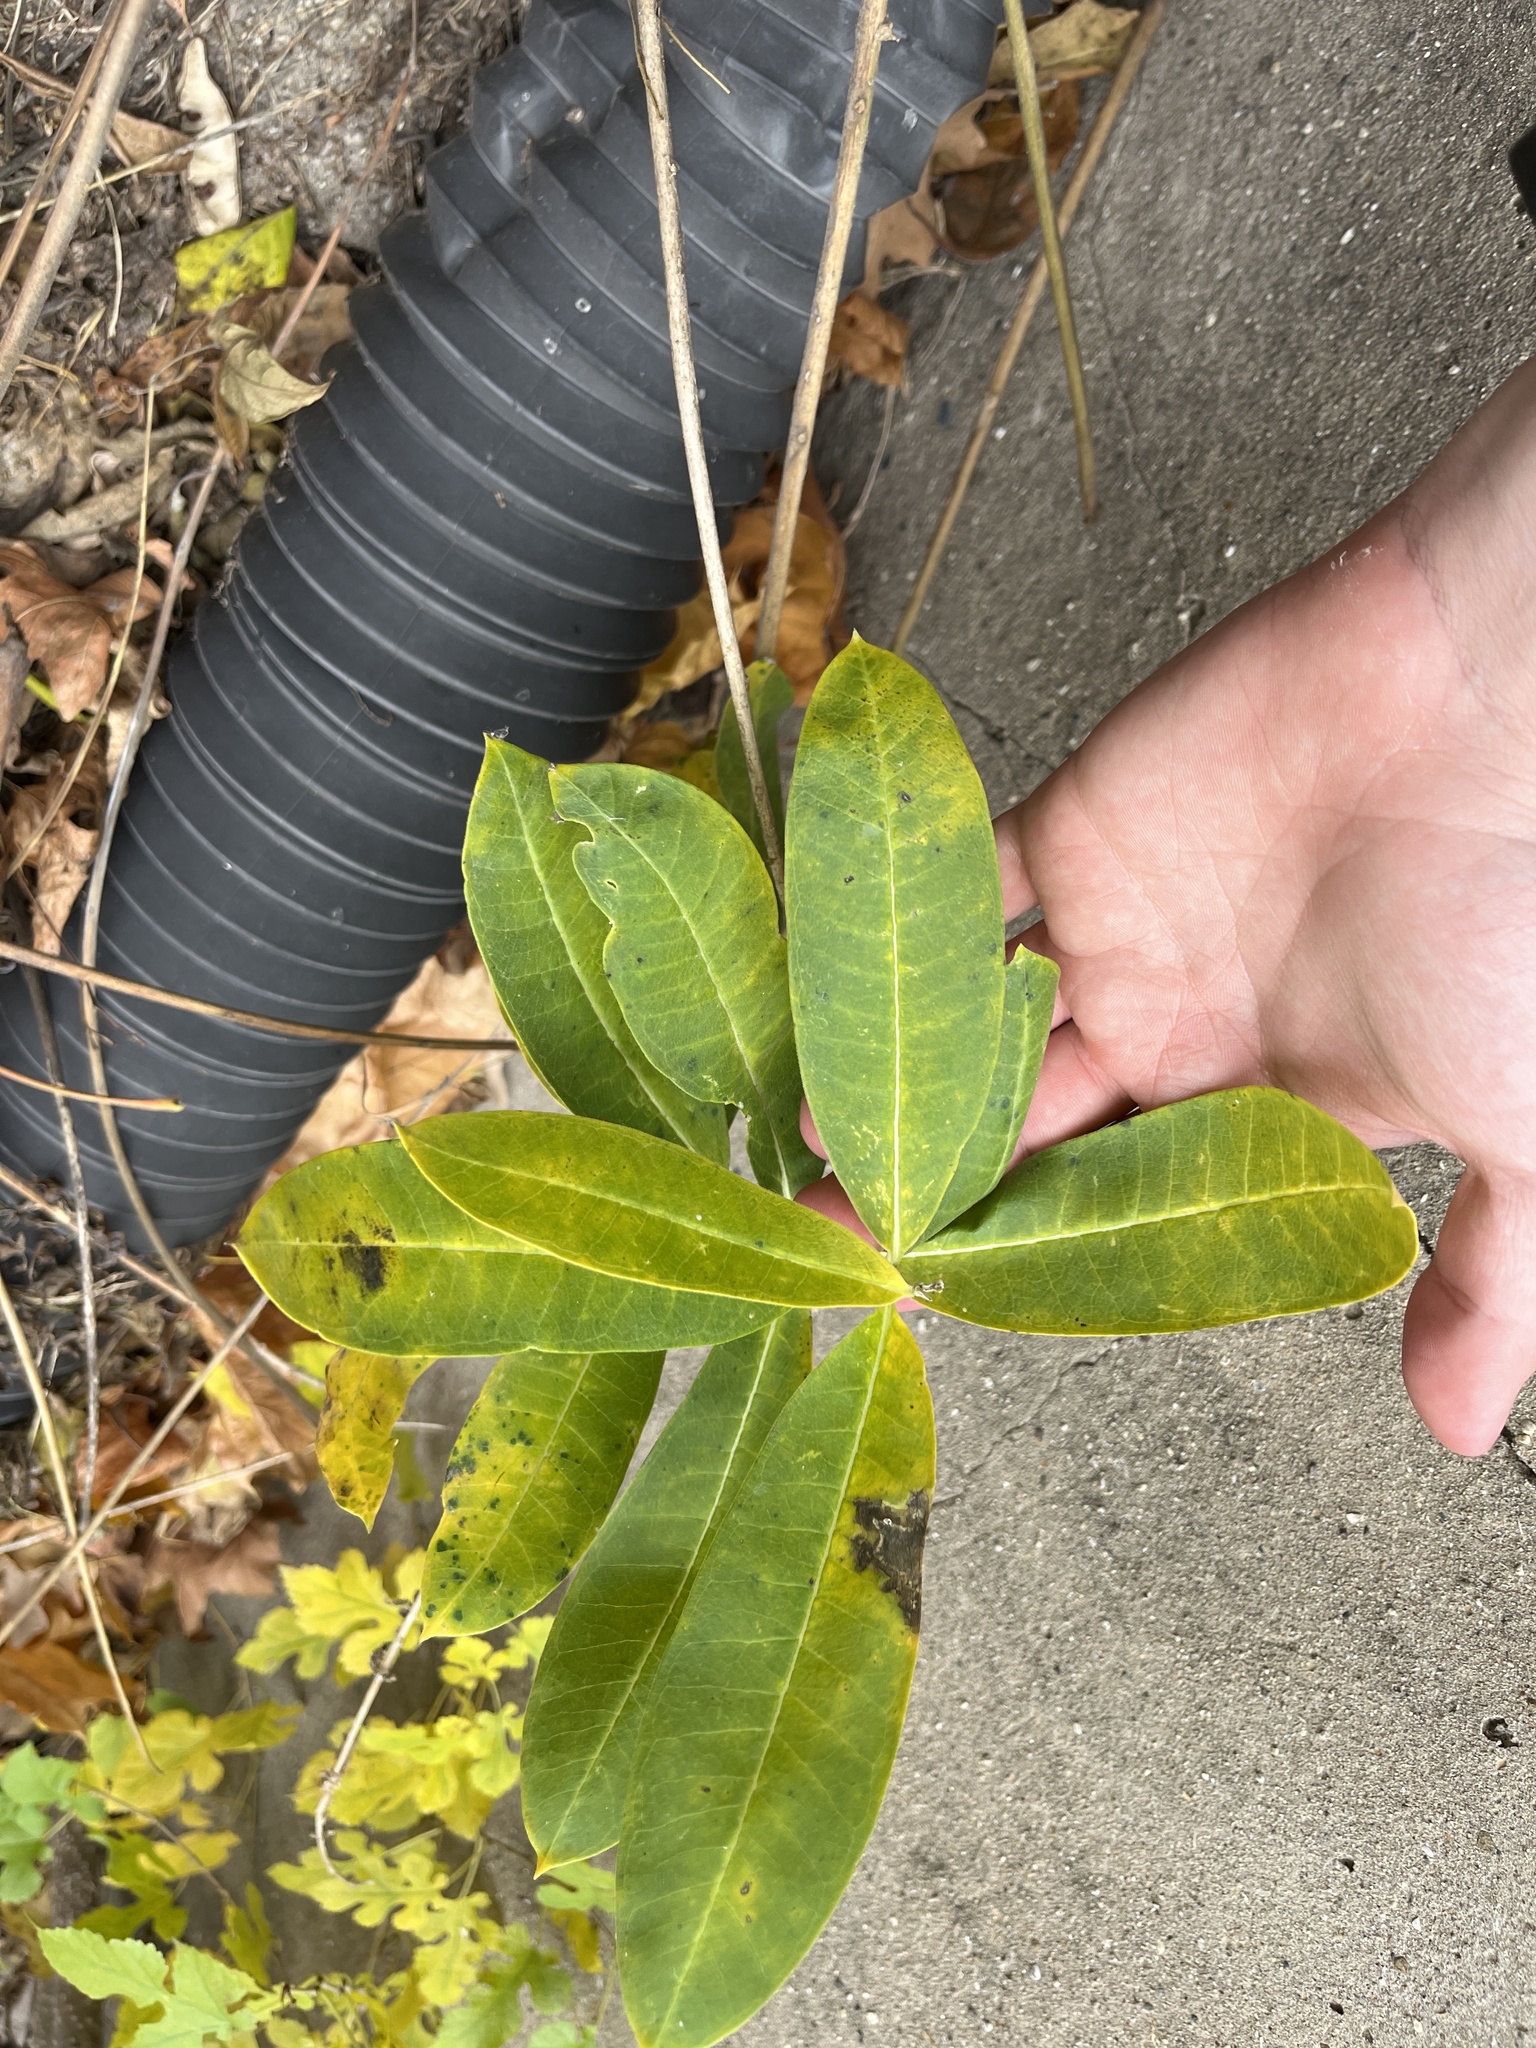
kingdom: Plantae
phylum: Tracheophyta
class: Magnoliopsida
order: Gentianales
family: Apocynaceae
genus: Asclepias
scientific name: Asclepias syriaca
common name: Common milkweed
